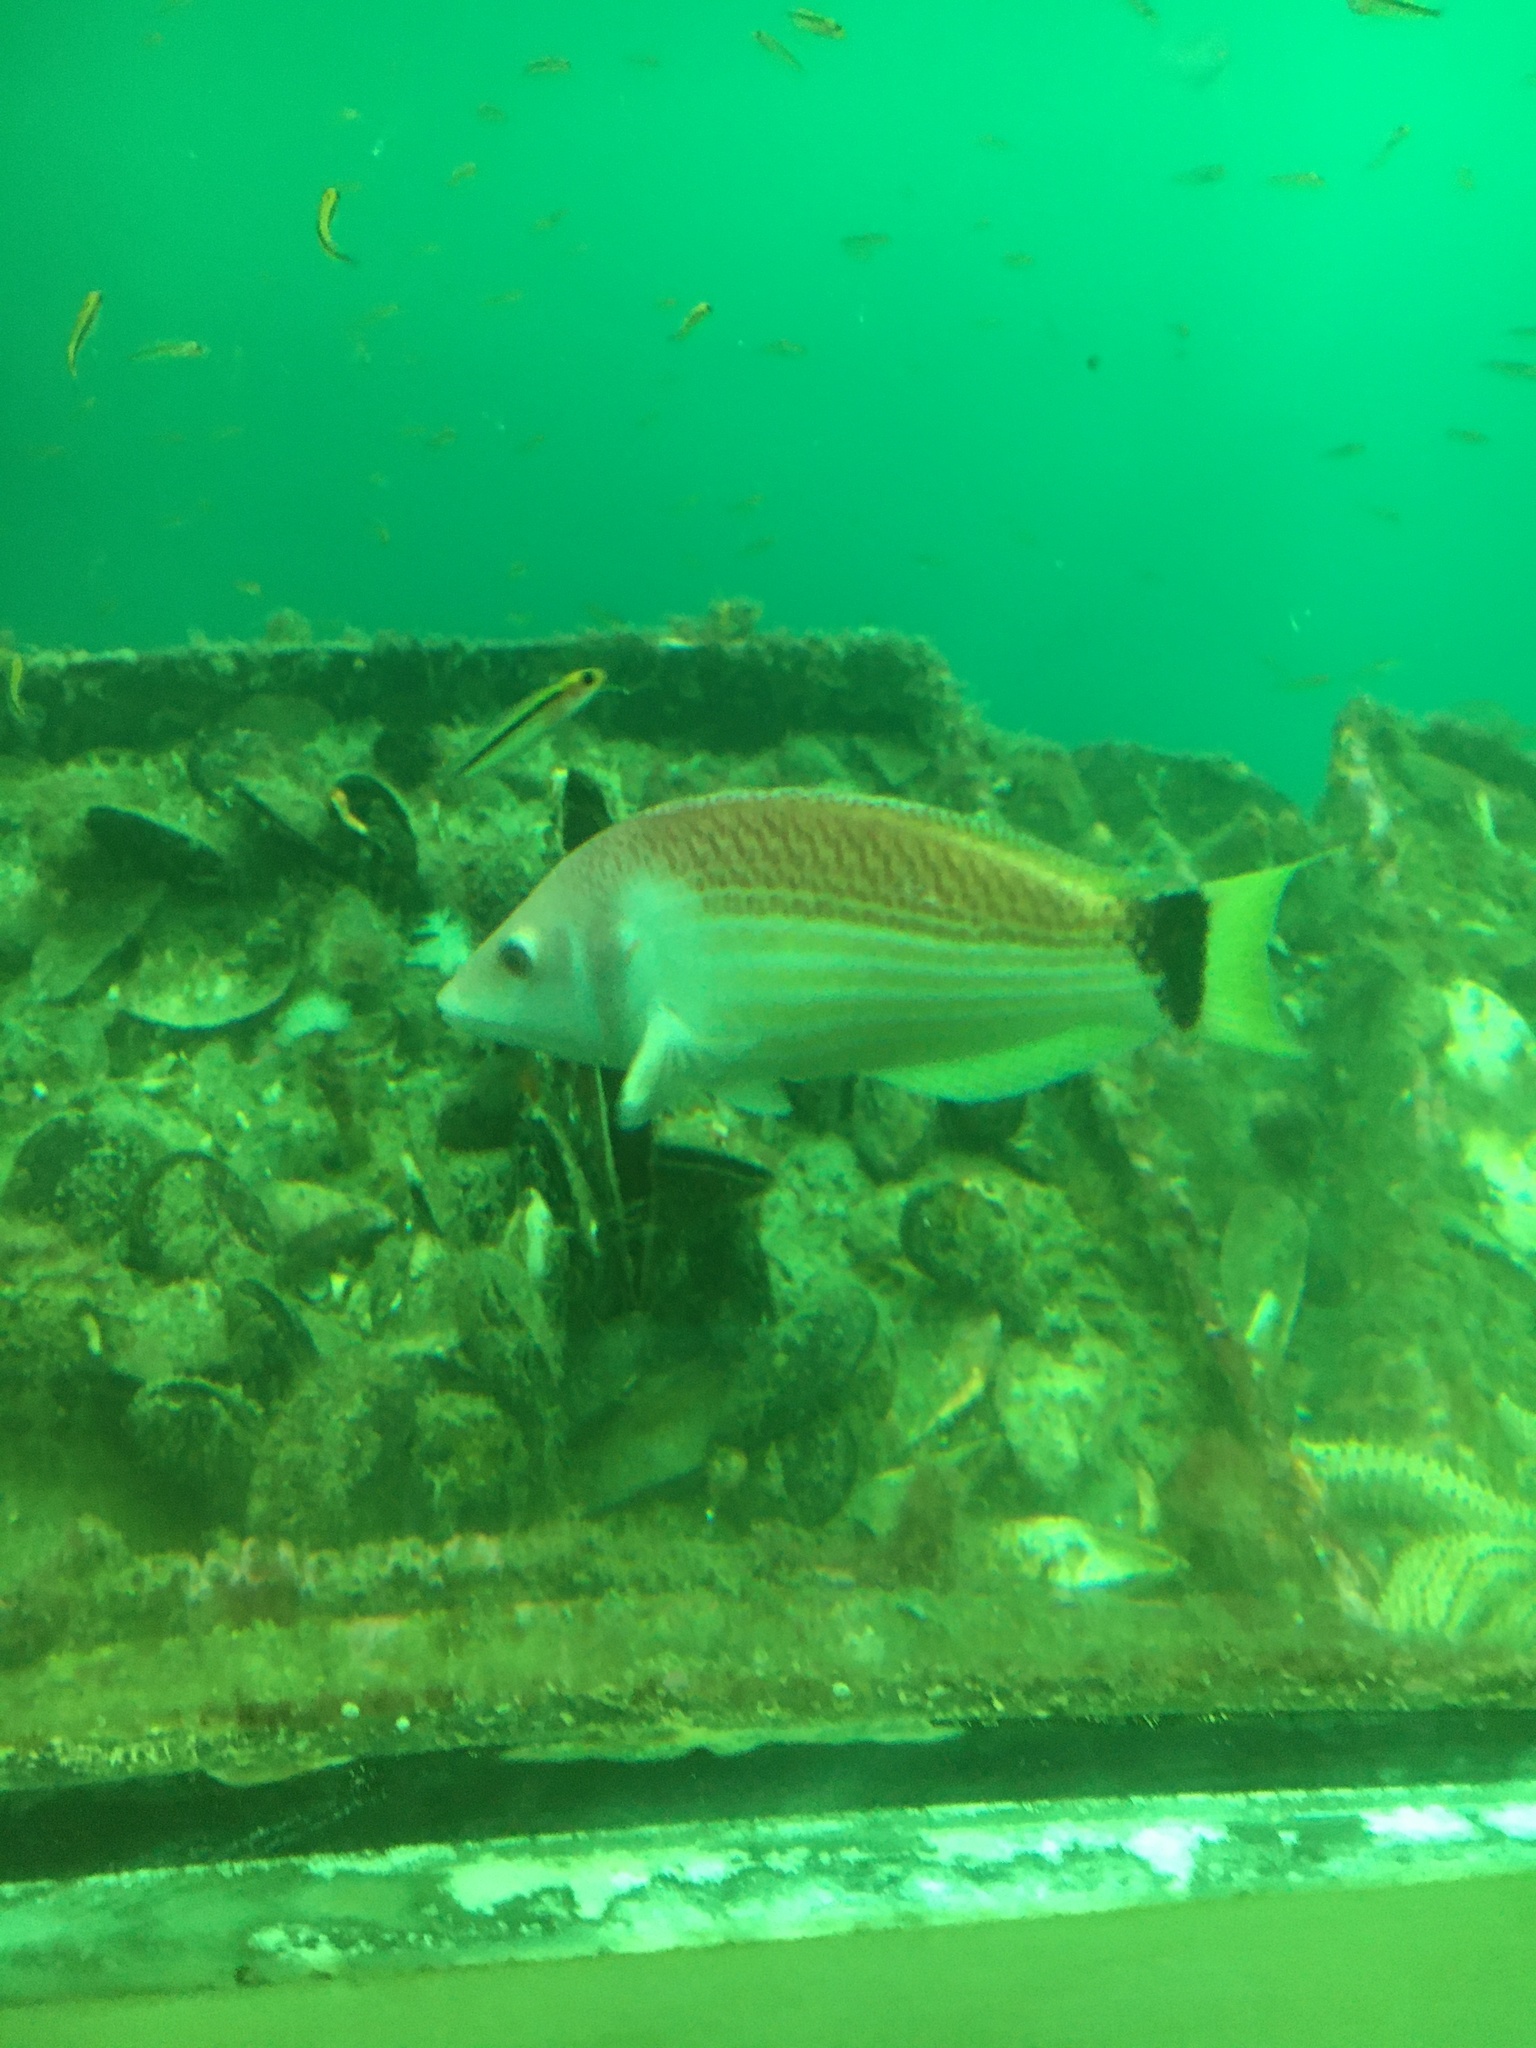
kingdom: Animalia
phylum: Chordata
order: Perciformes
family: Labridae
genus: Pseudolabrus
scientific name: Pseudolabrus miles
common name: Scarlet wrasse
